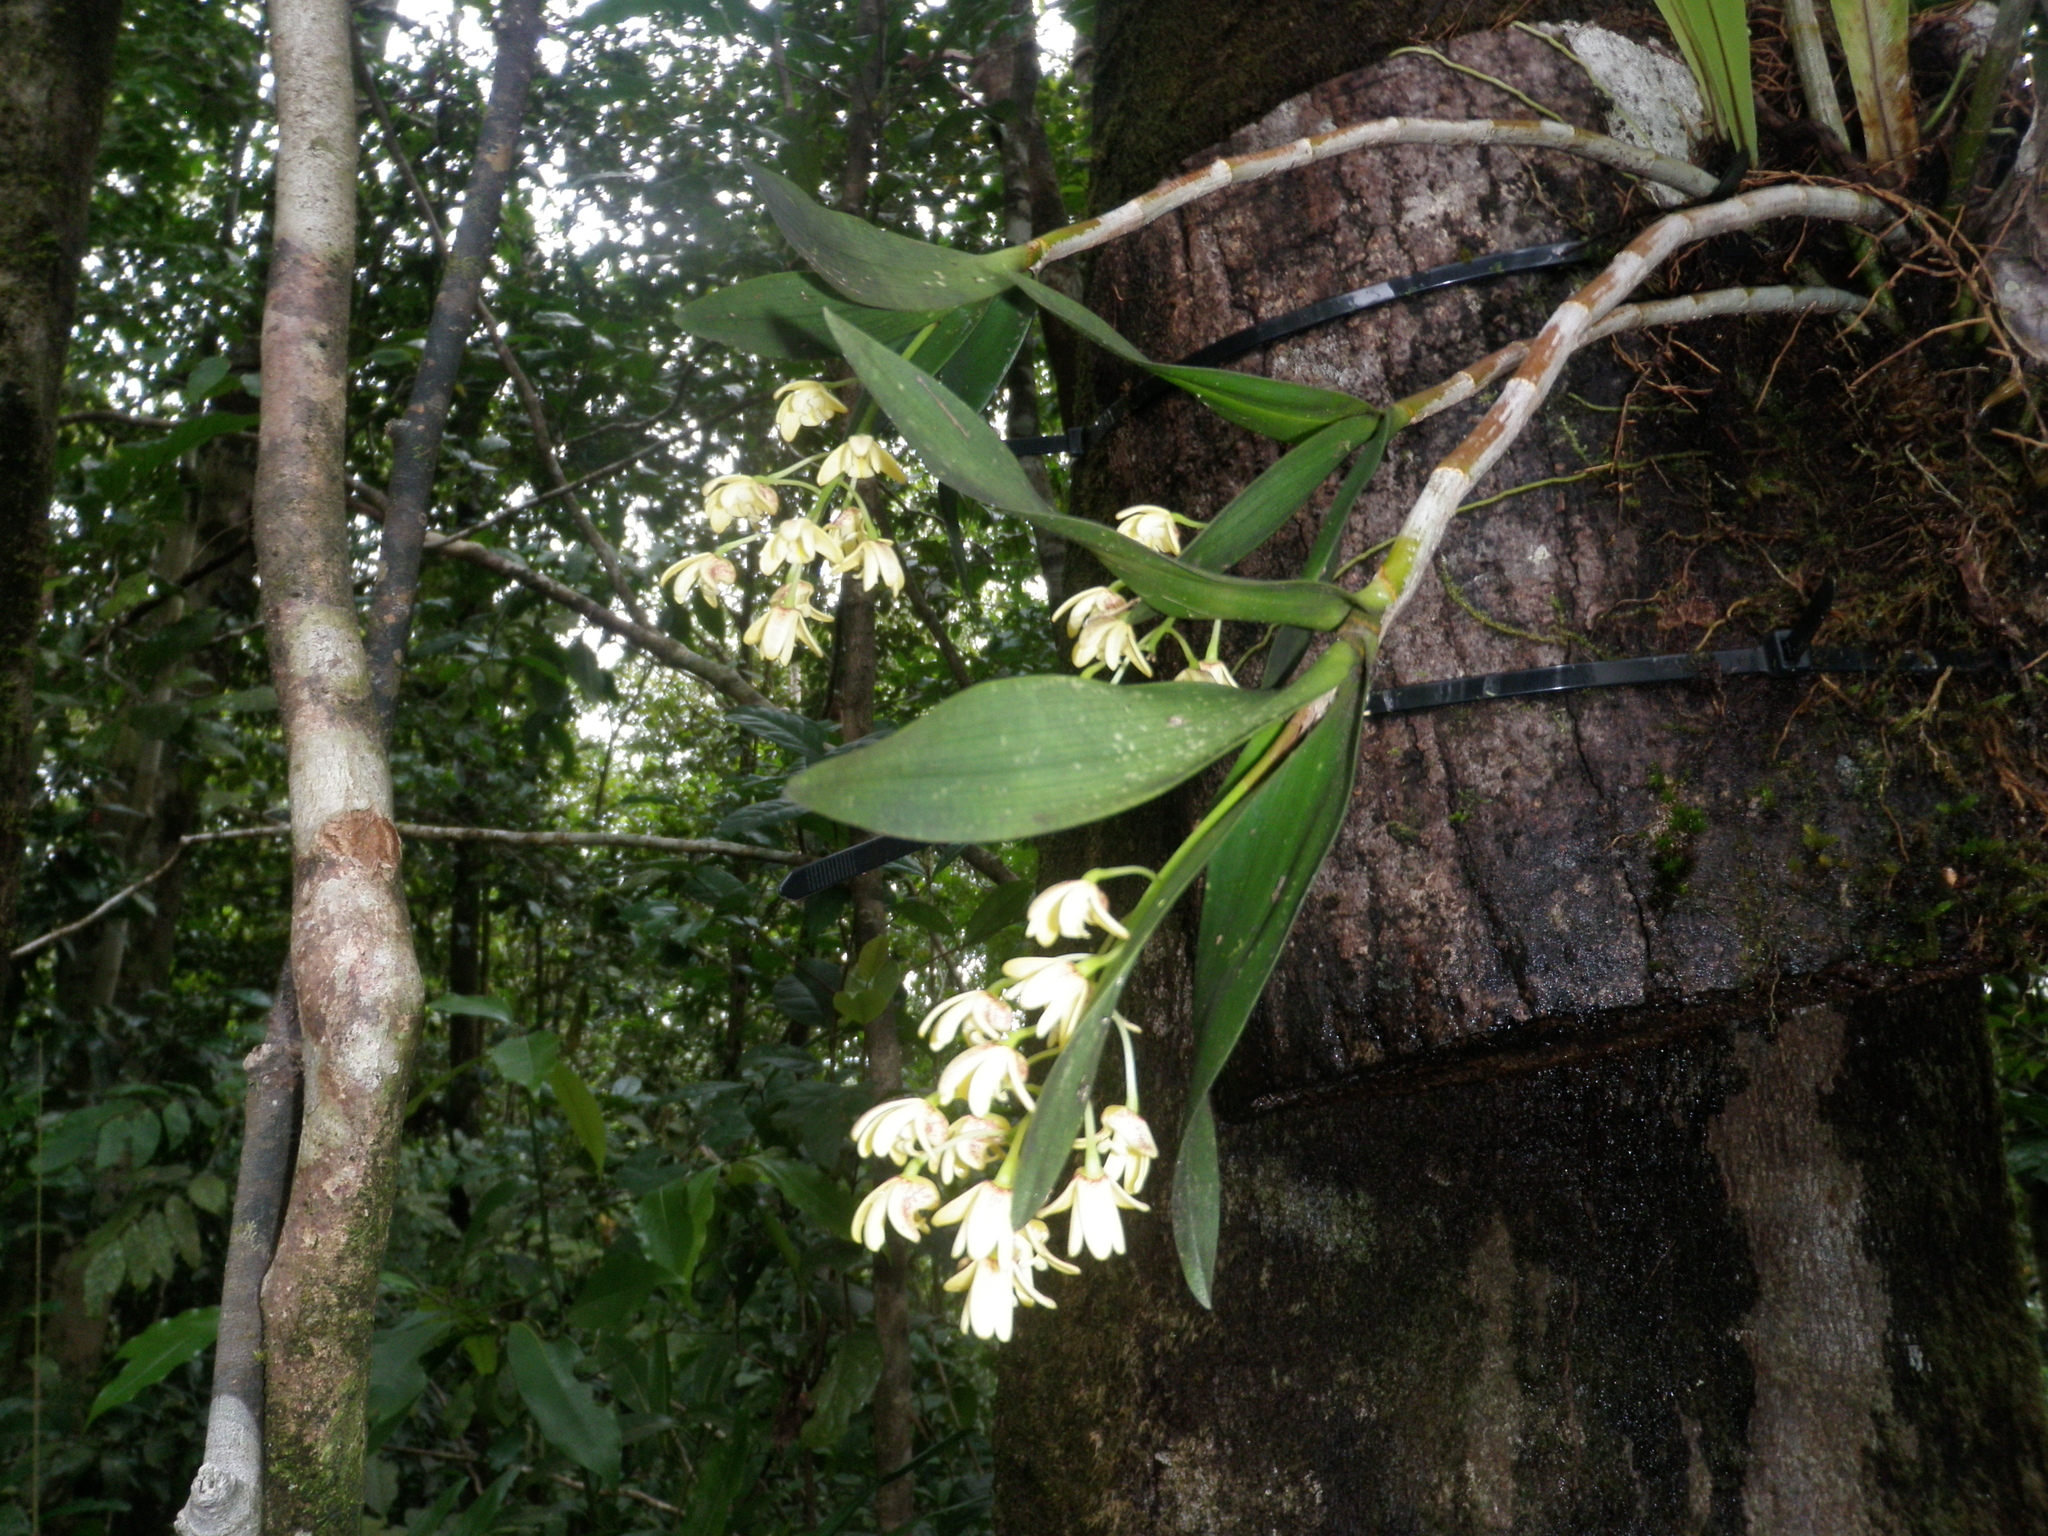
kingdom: Plantae
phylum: Tracheophyta
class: Liliopsida
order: Asparagales
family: Orchidaceae
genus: Dendrobium
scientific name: Dendrobium gracillimum
